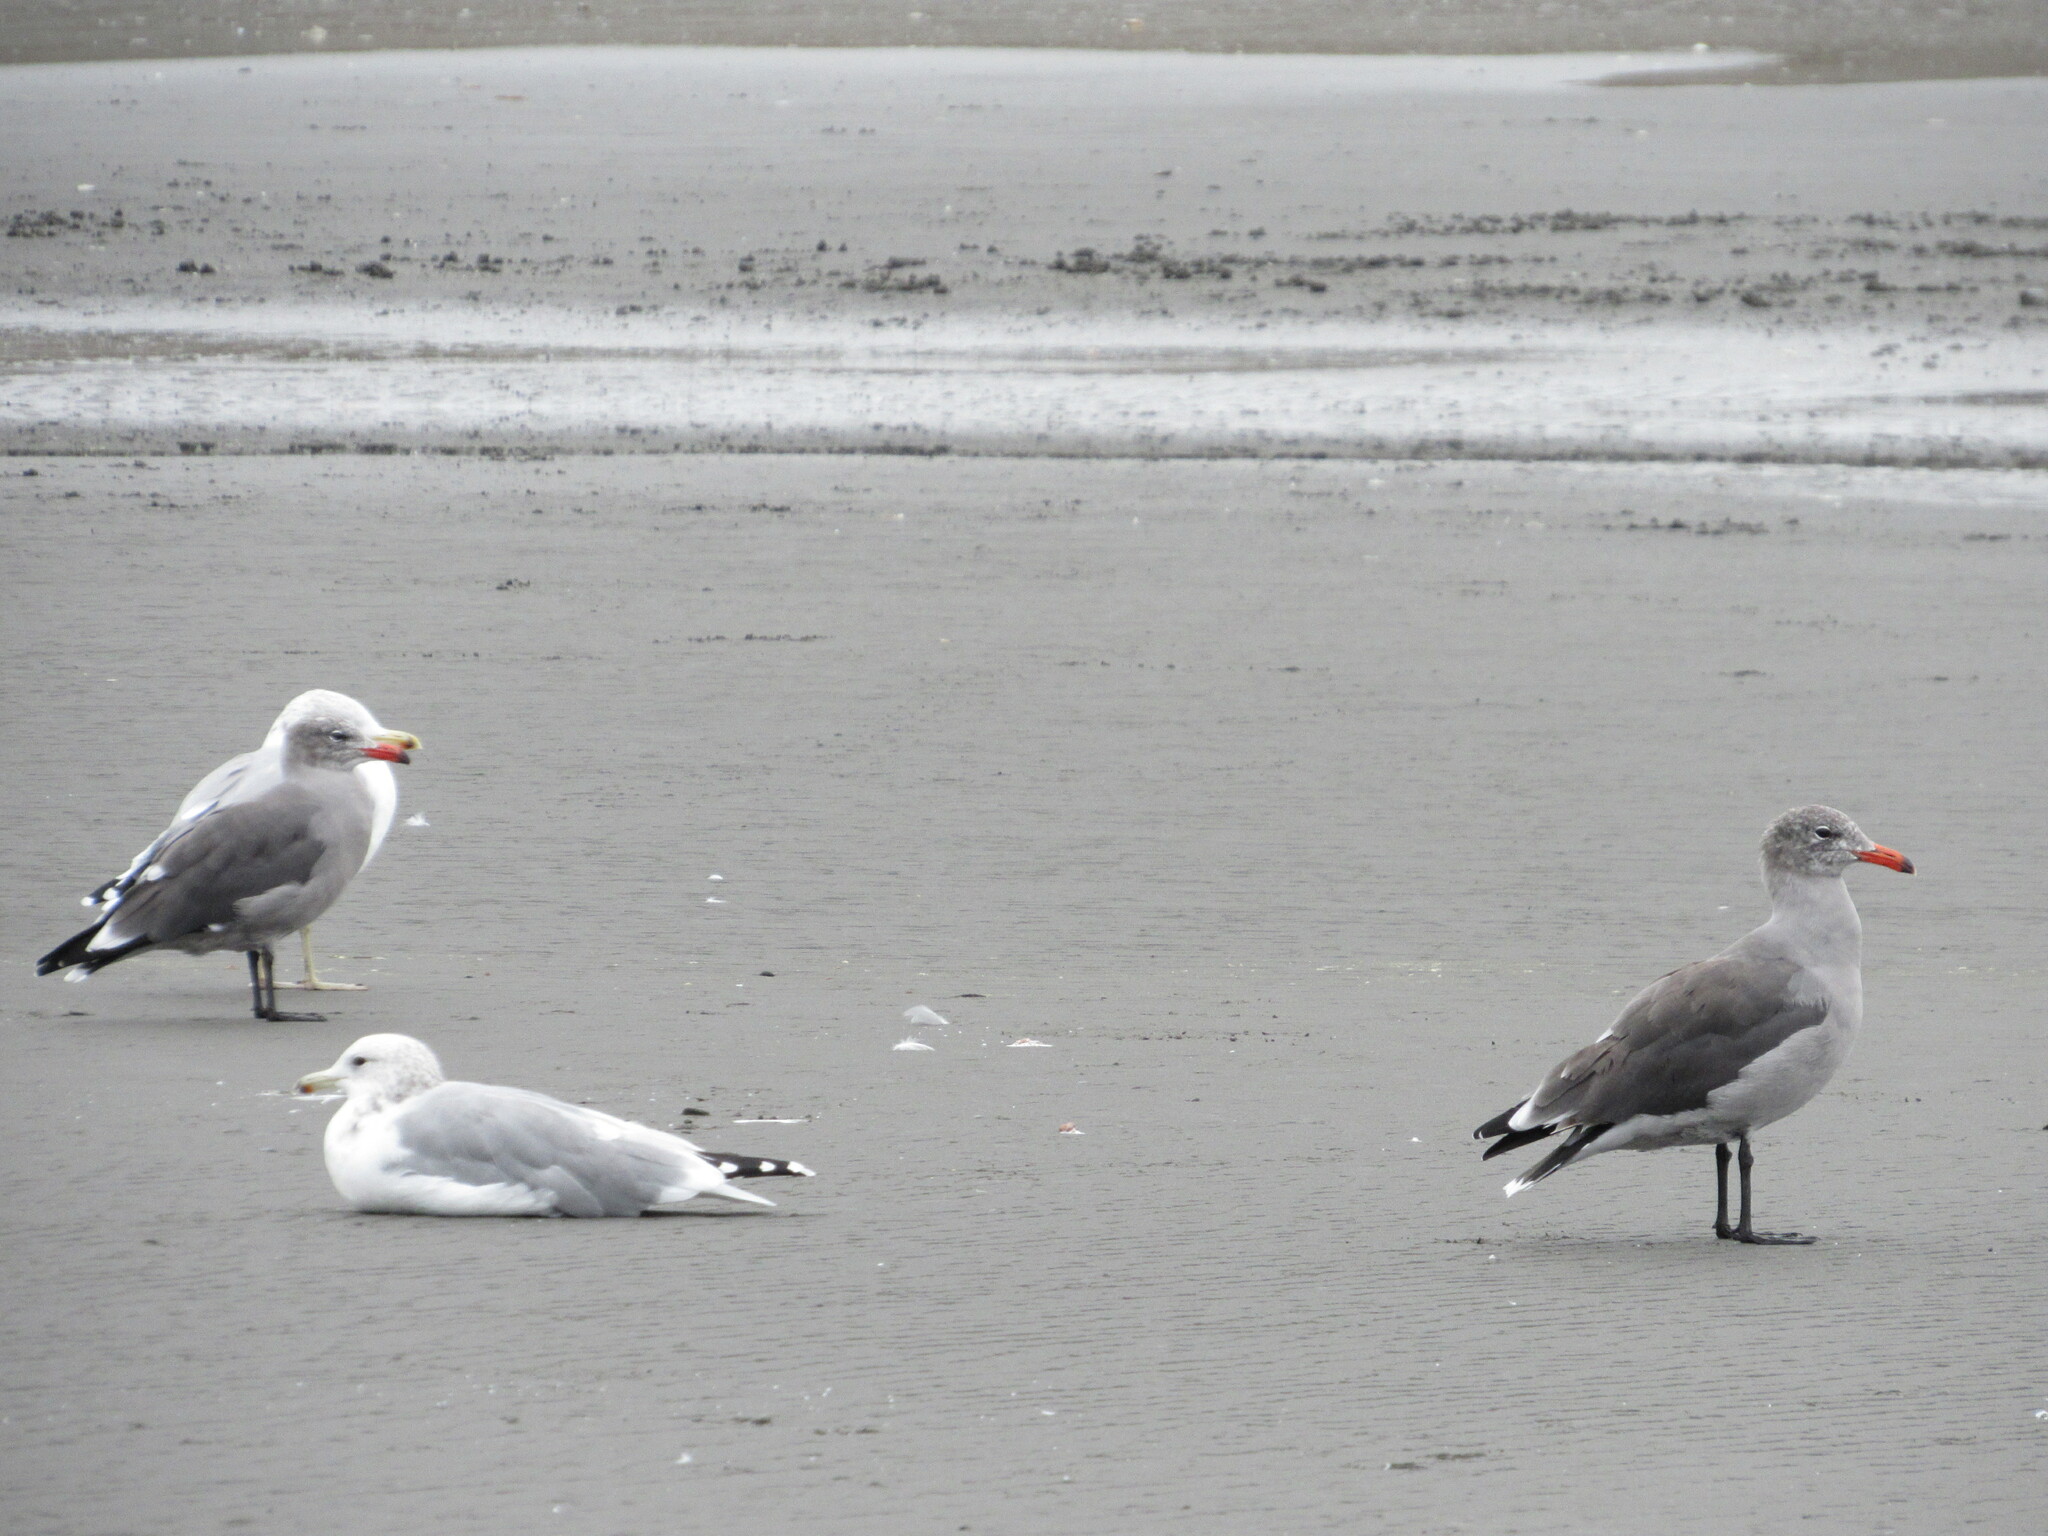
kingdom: Animalia
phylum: Chordata
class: Aves
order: Charadriiformes
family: Laridae
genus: Larus
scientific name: Larus californicus
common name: California gull
